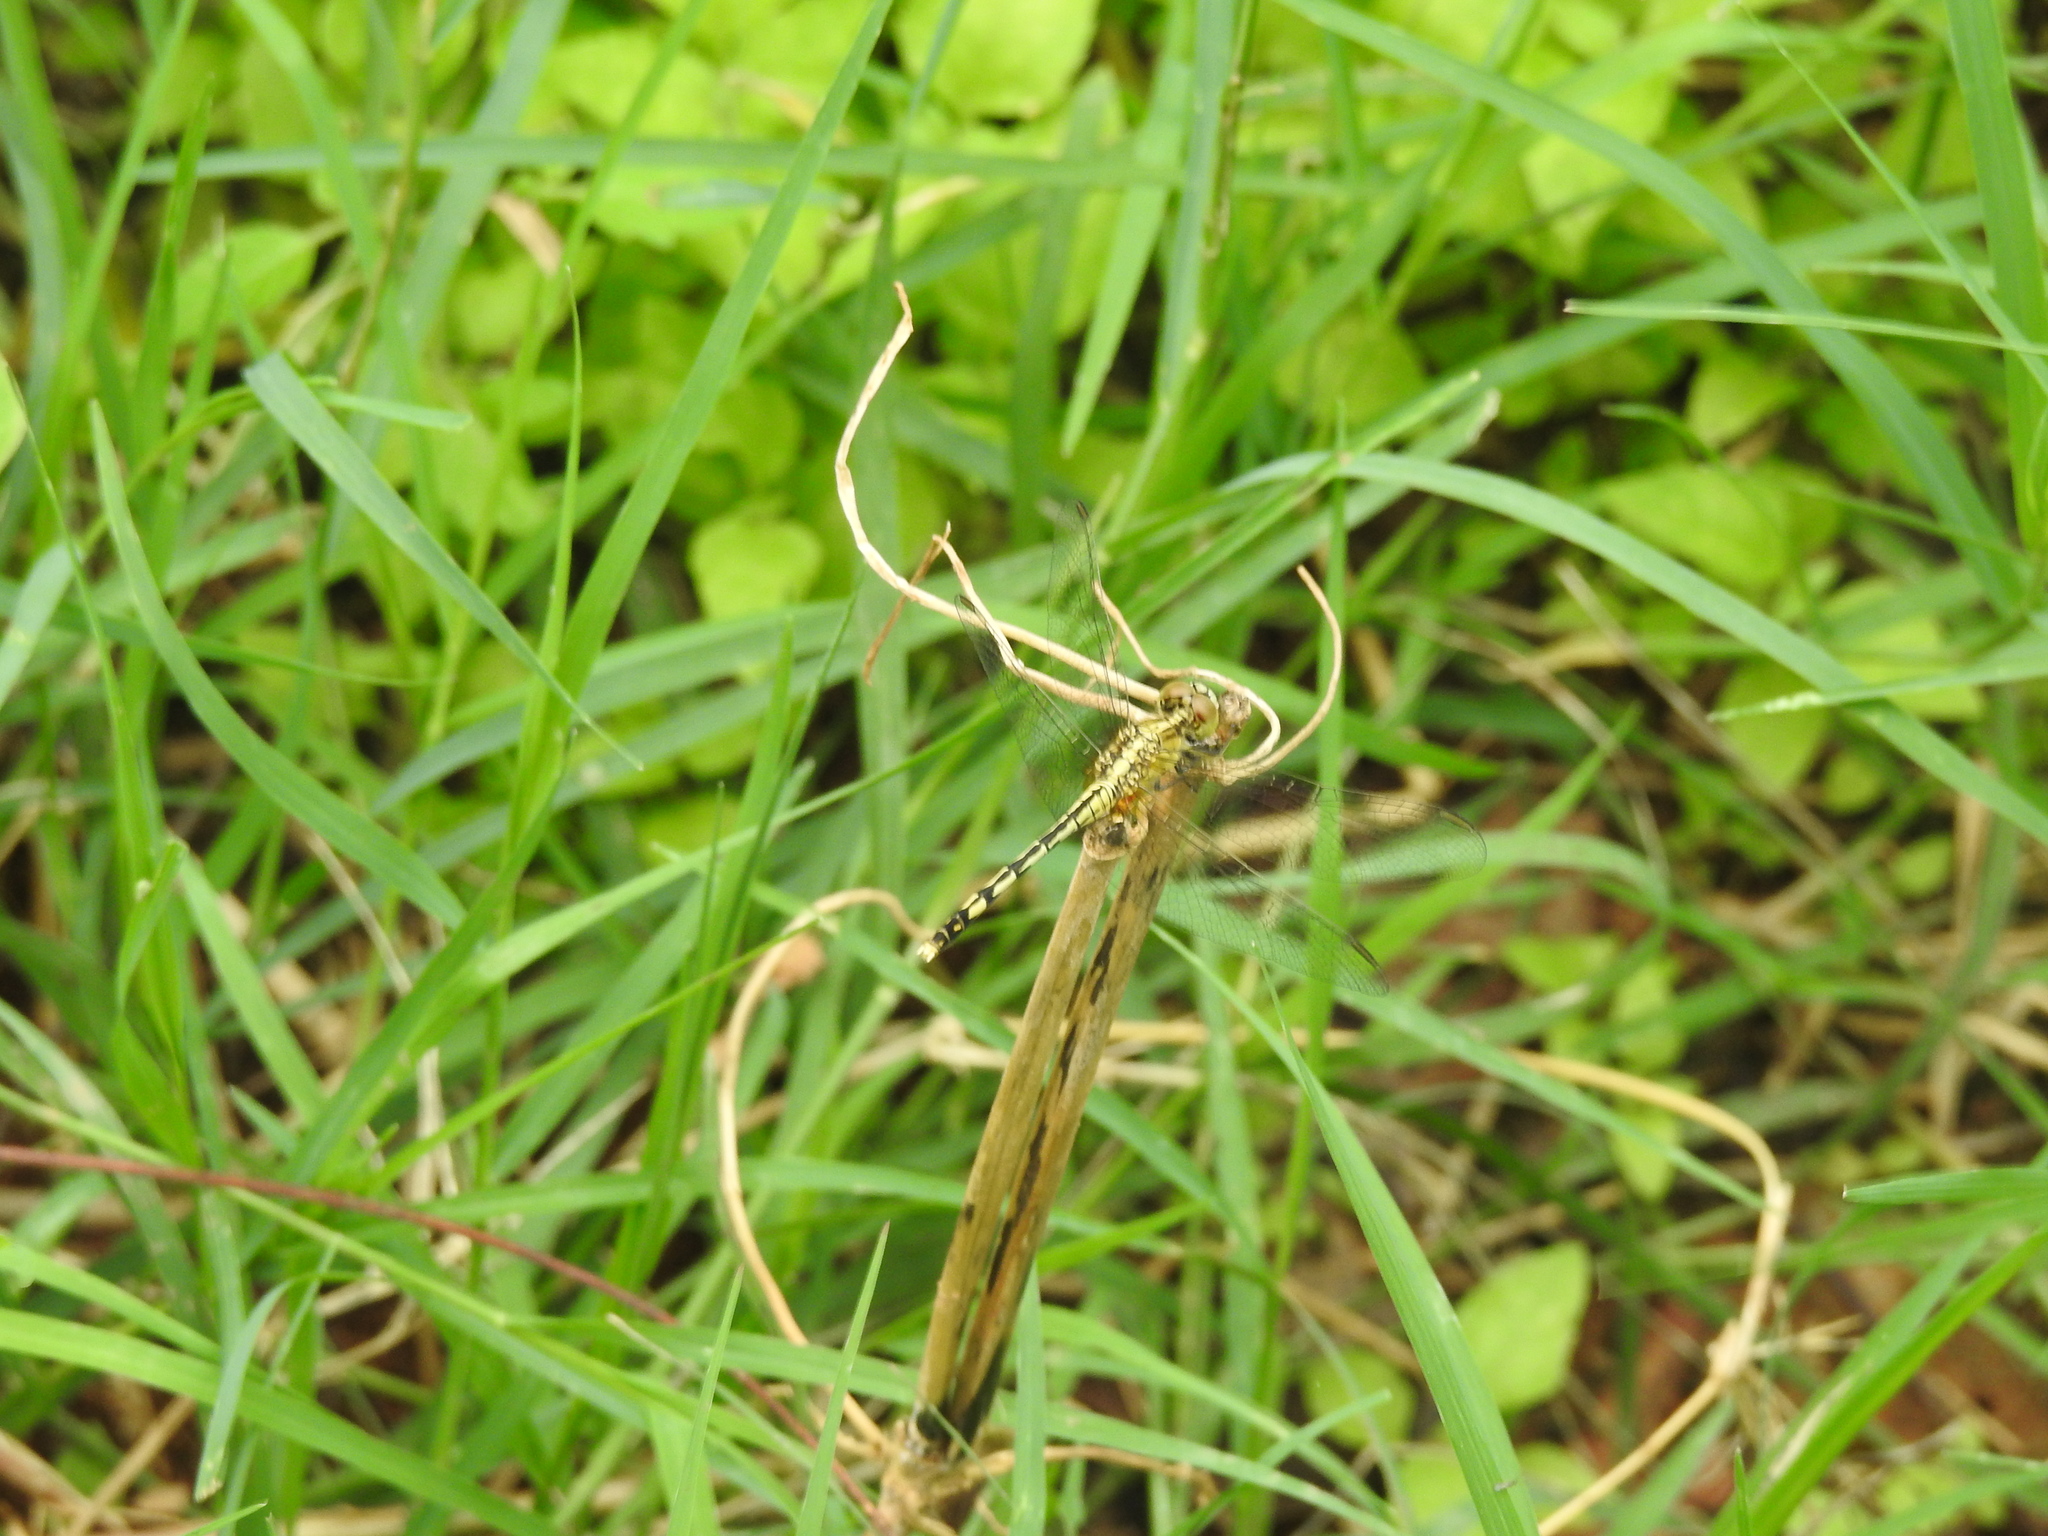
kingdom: Animalia
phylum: Arthropoda
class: Insecta
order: Odonata
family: Libellulidae
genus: Diplacodes
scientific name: Diplacodes trivialis
